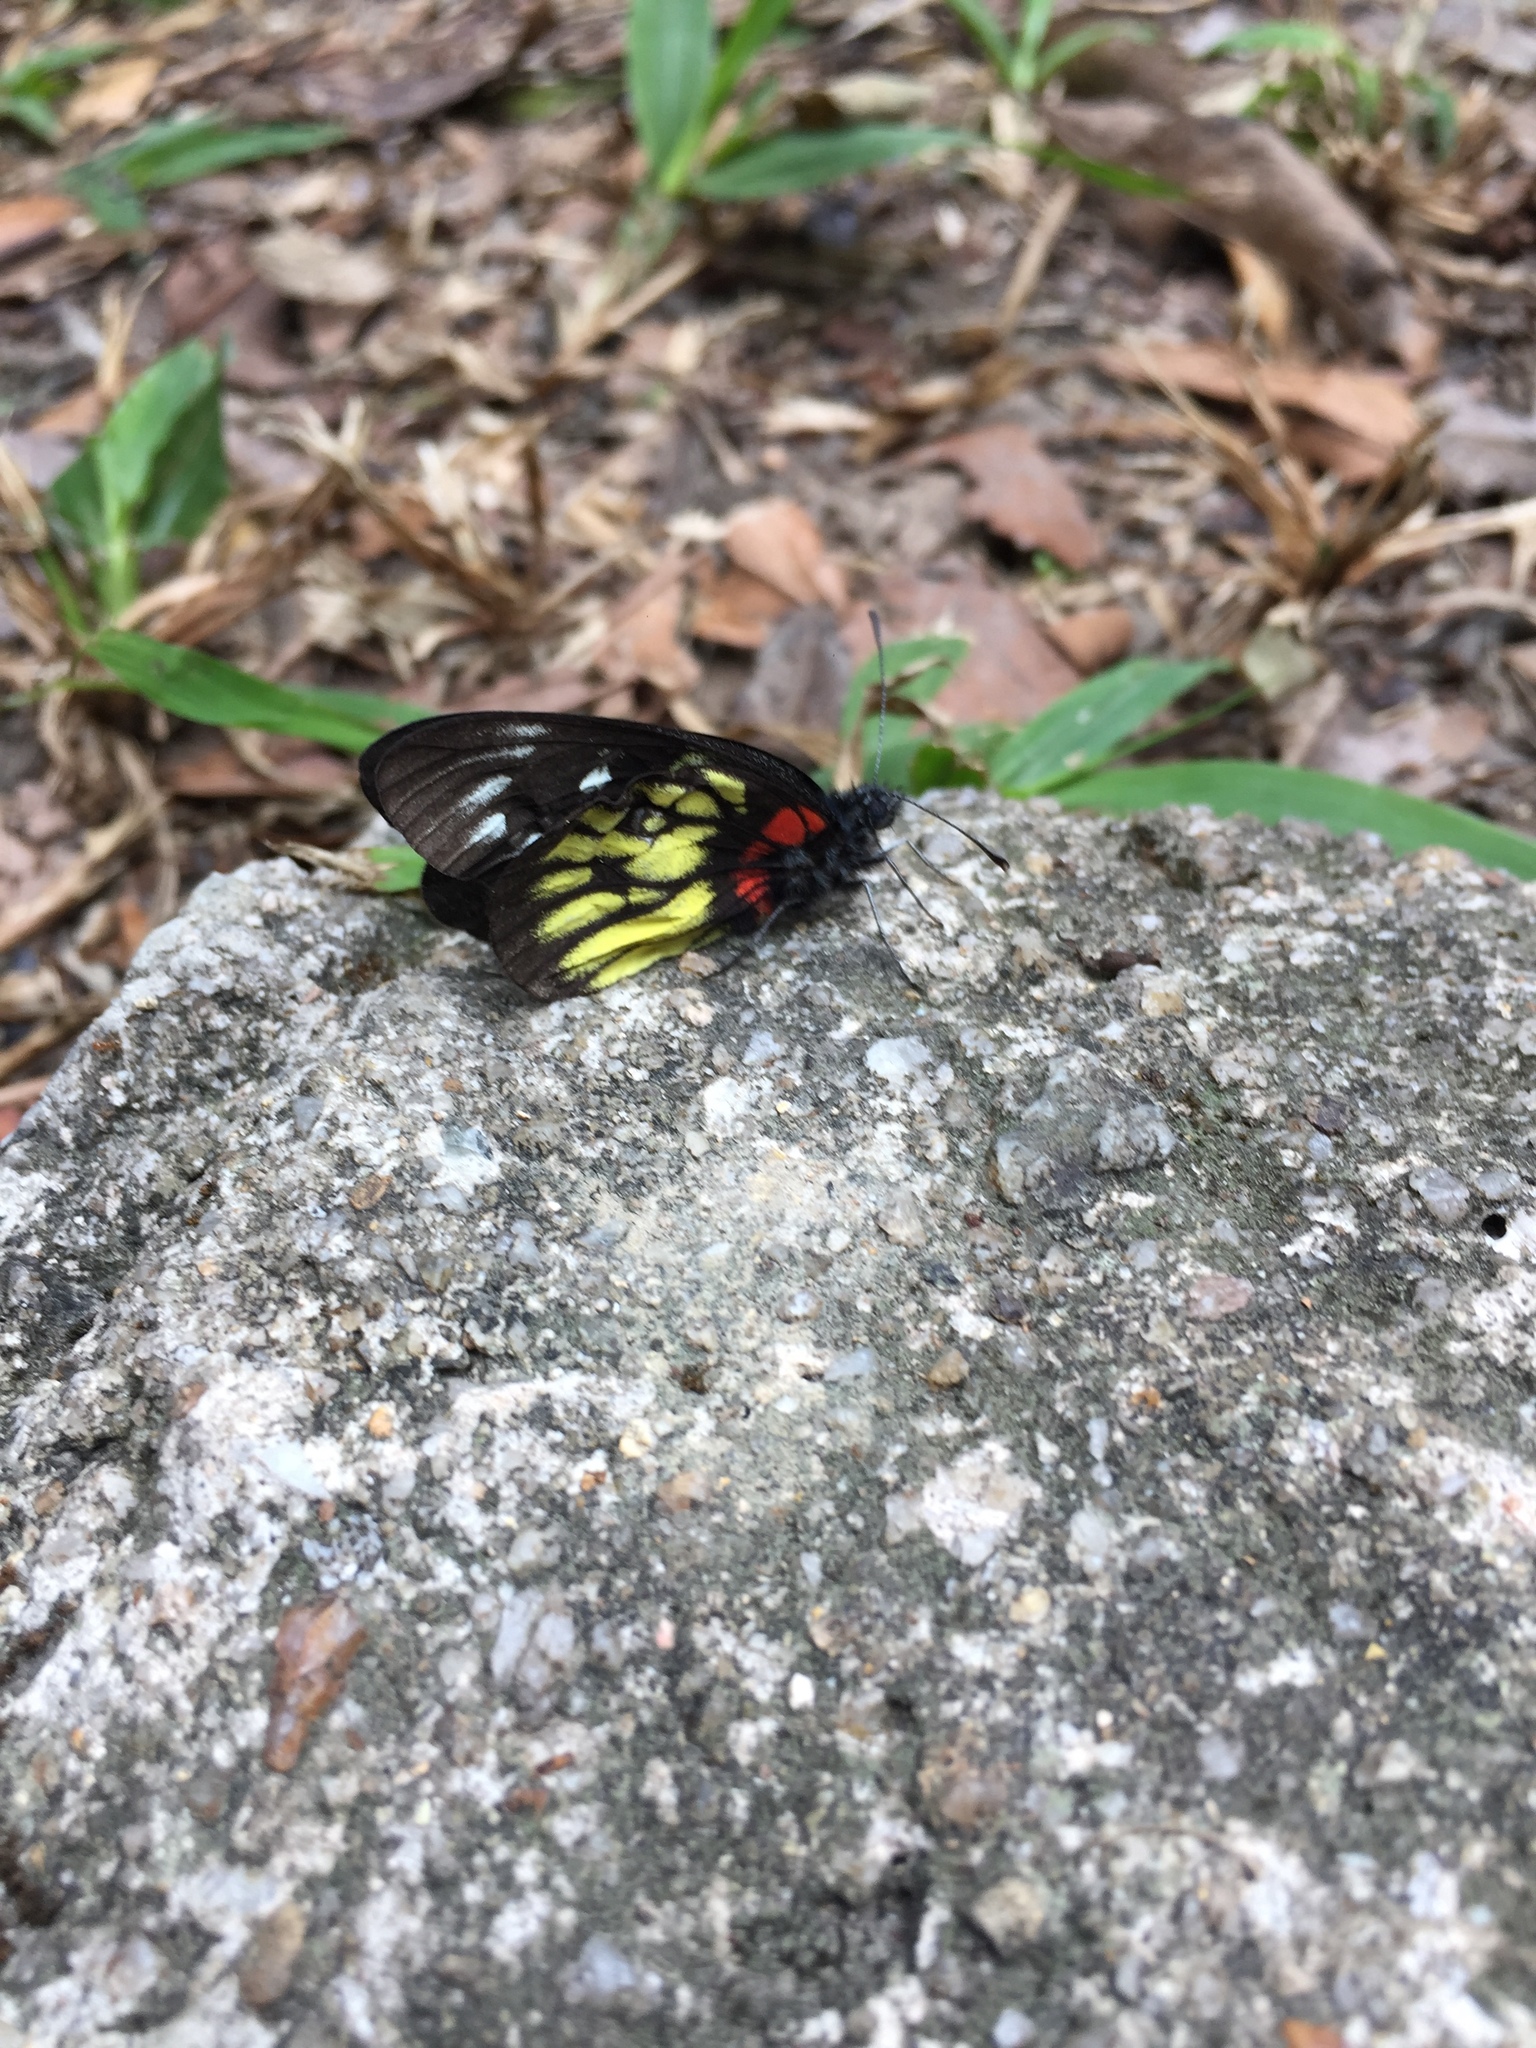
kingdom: Animalia
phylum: Arthropoda
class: Insecta
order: Lepidoptera
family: Pieridae
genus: Delias
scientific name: Delias pasithoe
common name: Red-base jezebel
